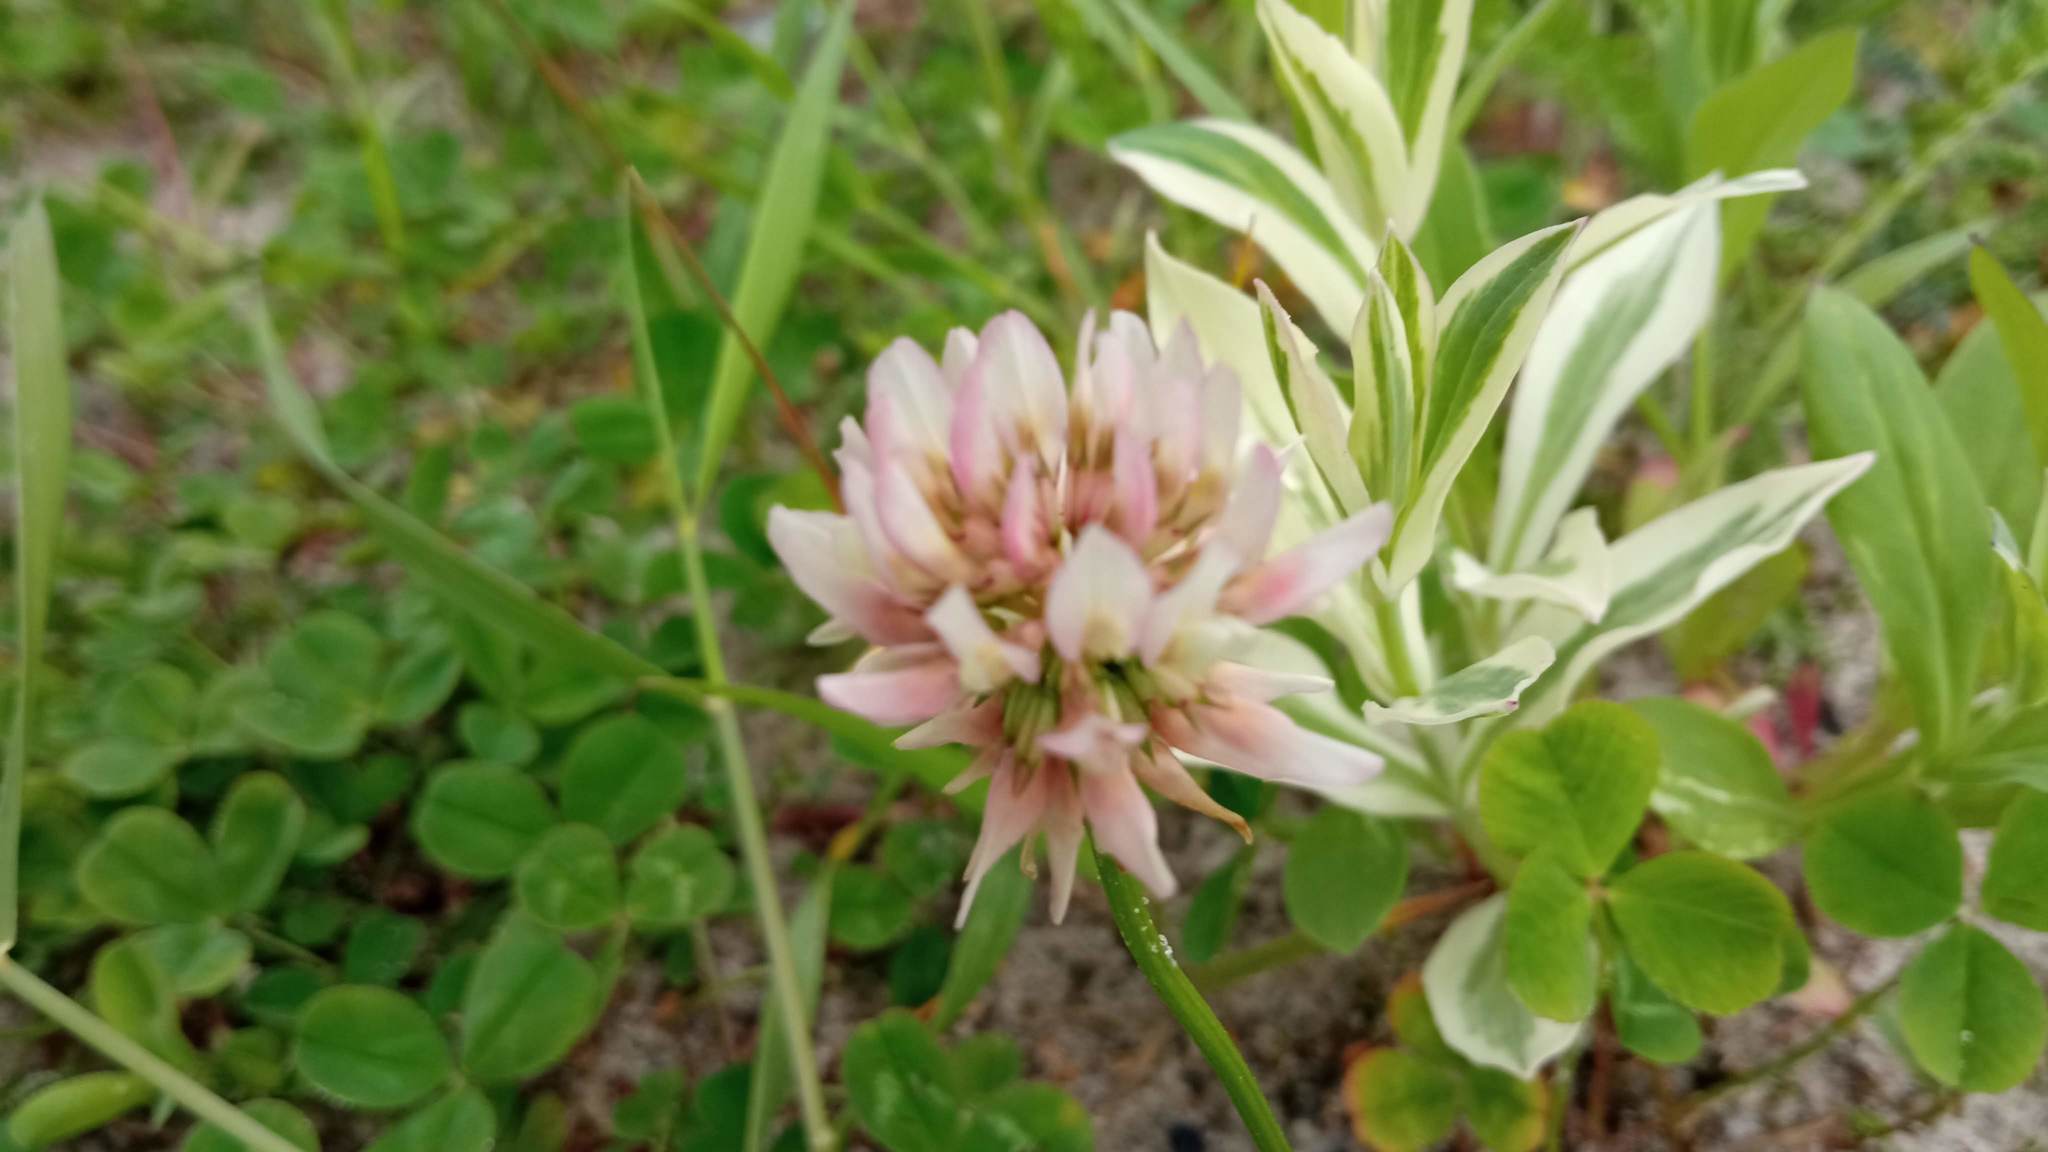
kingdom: Plantae
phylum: Tracheophyta
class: Magnoliopsida
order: Fabales
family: Fabaceae
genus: Trifolium
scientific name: Trifolium hybridum
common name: Alsike clover
